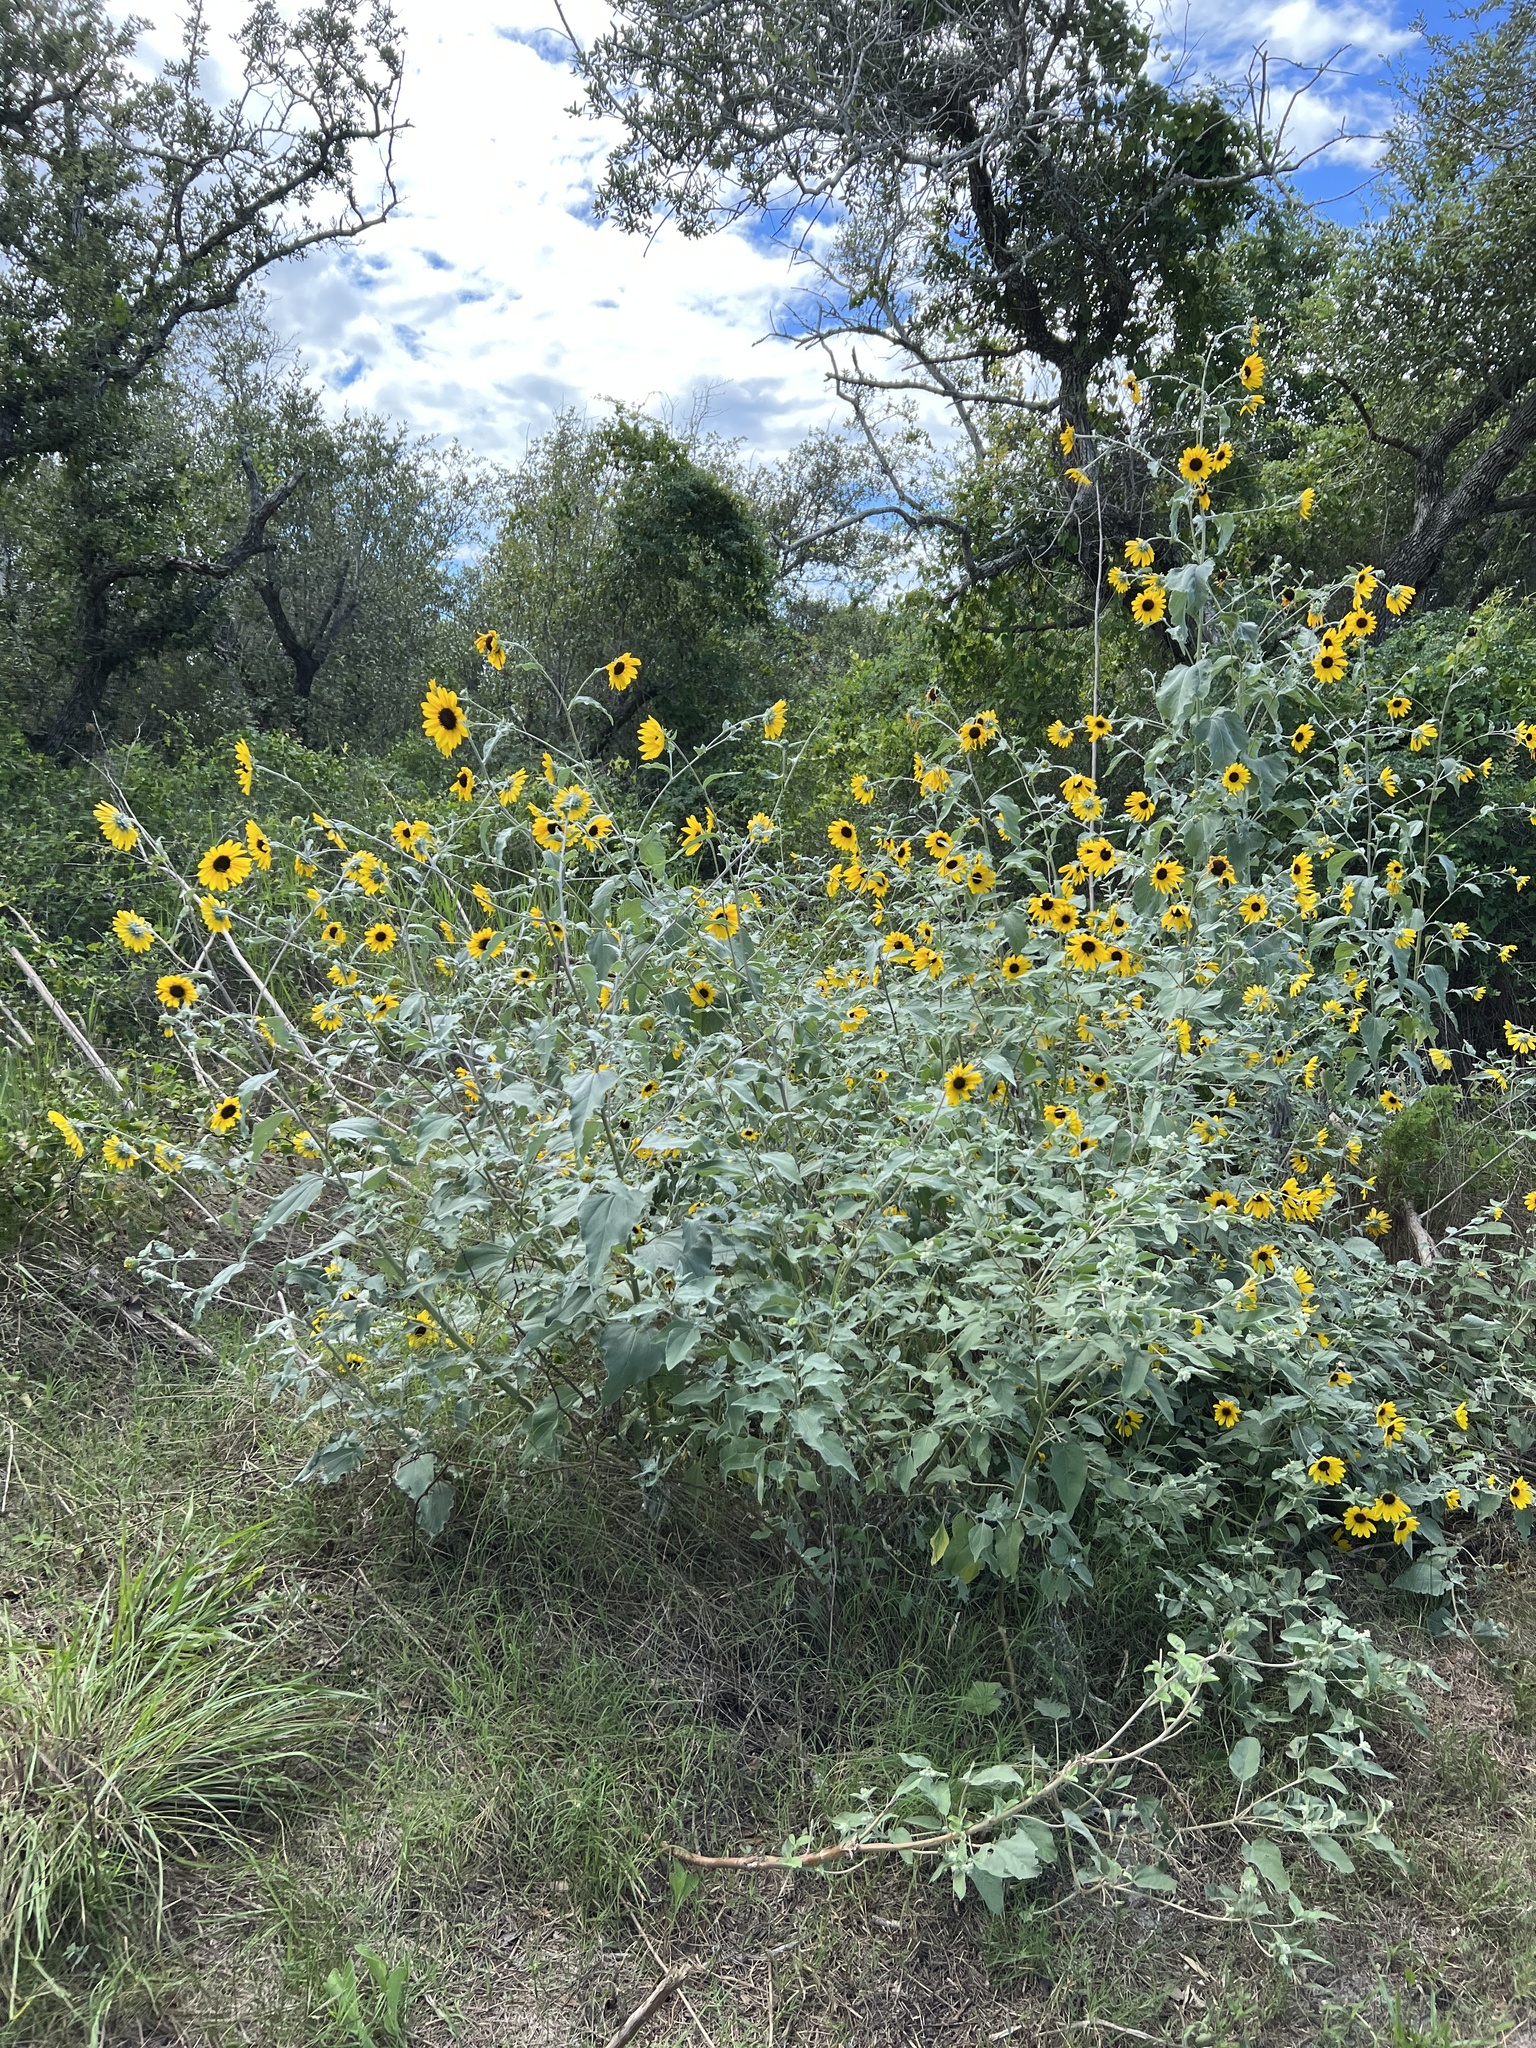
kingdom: Plantae
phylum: Tracheophyta
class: Magnoliopsida
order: Asterales
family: Asteraceae
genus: Helianthus
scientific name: Helianthus argophyllus
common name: Silverleaf sunflower
